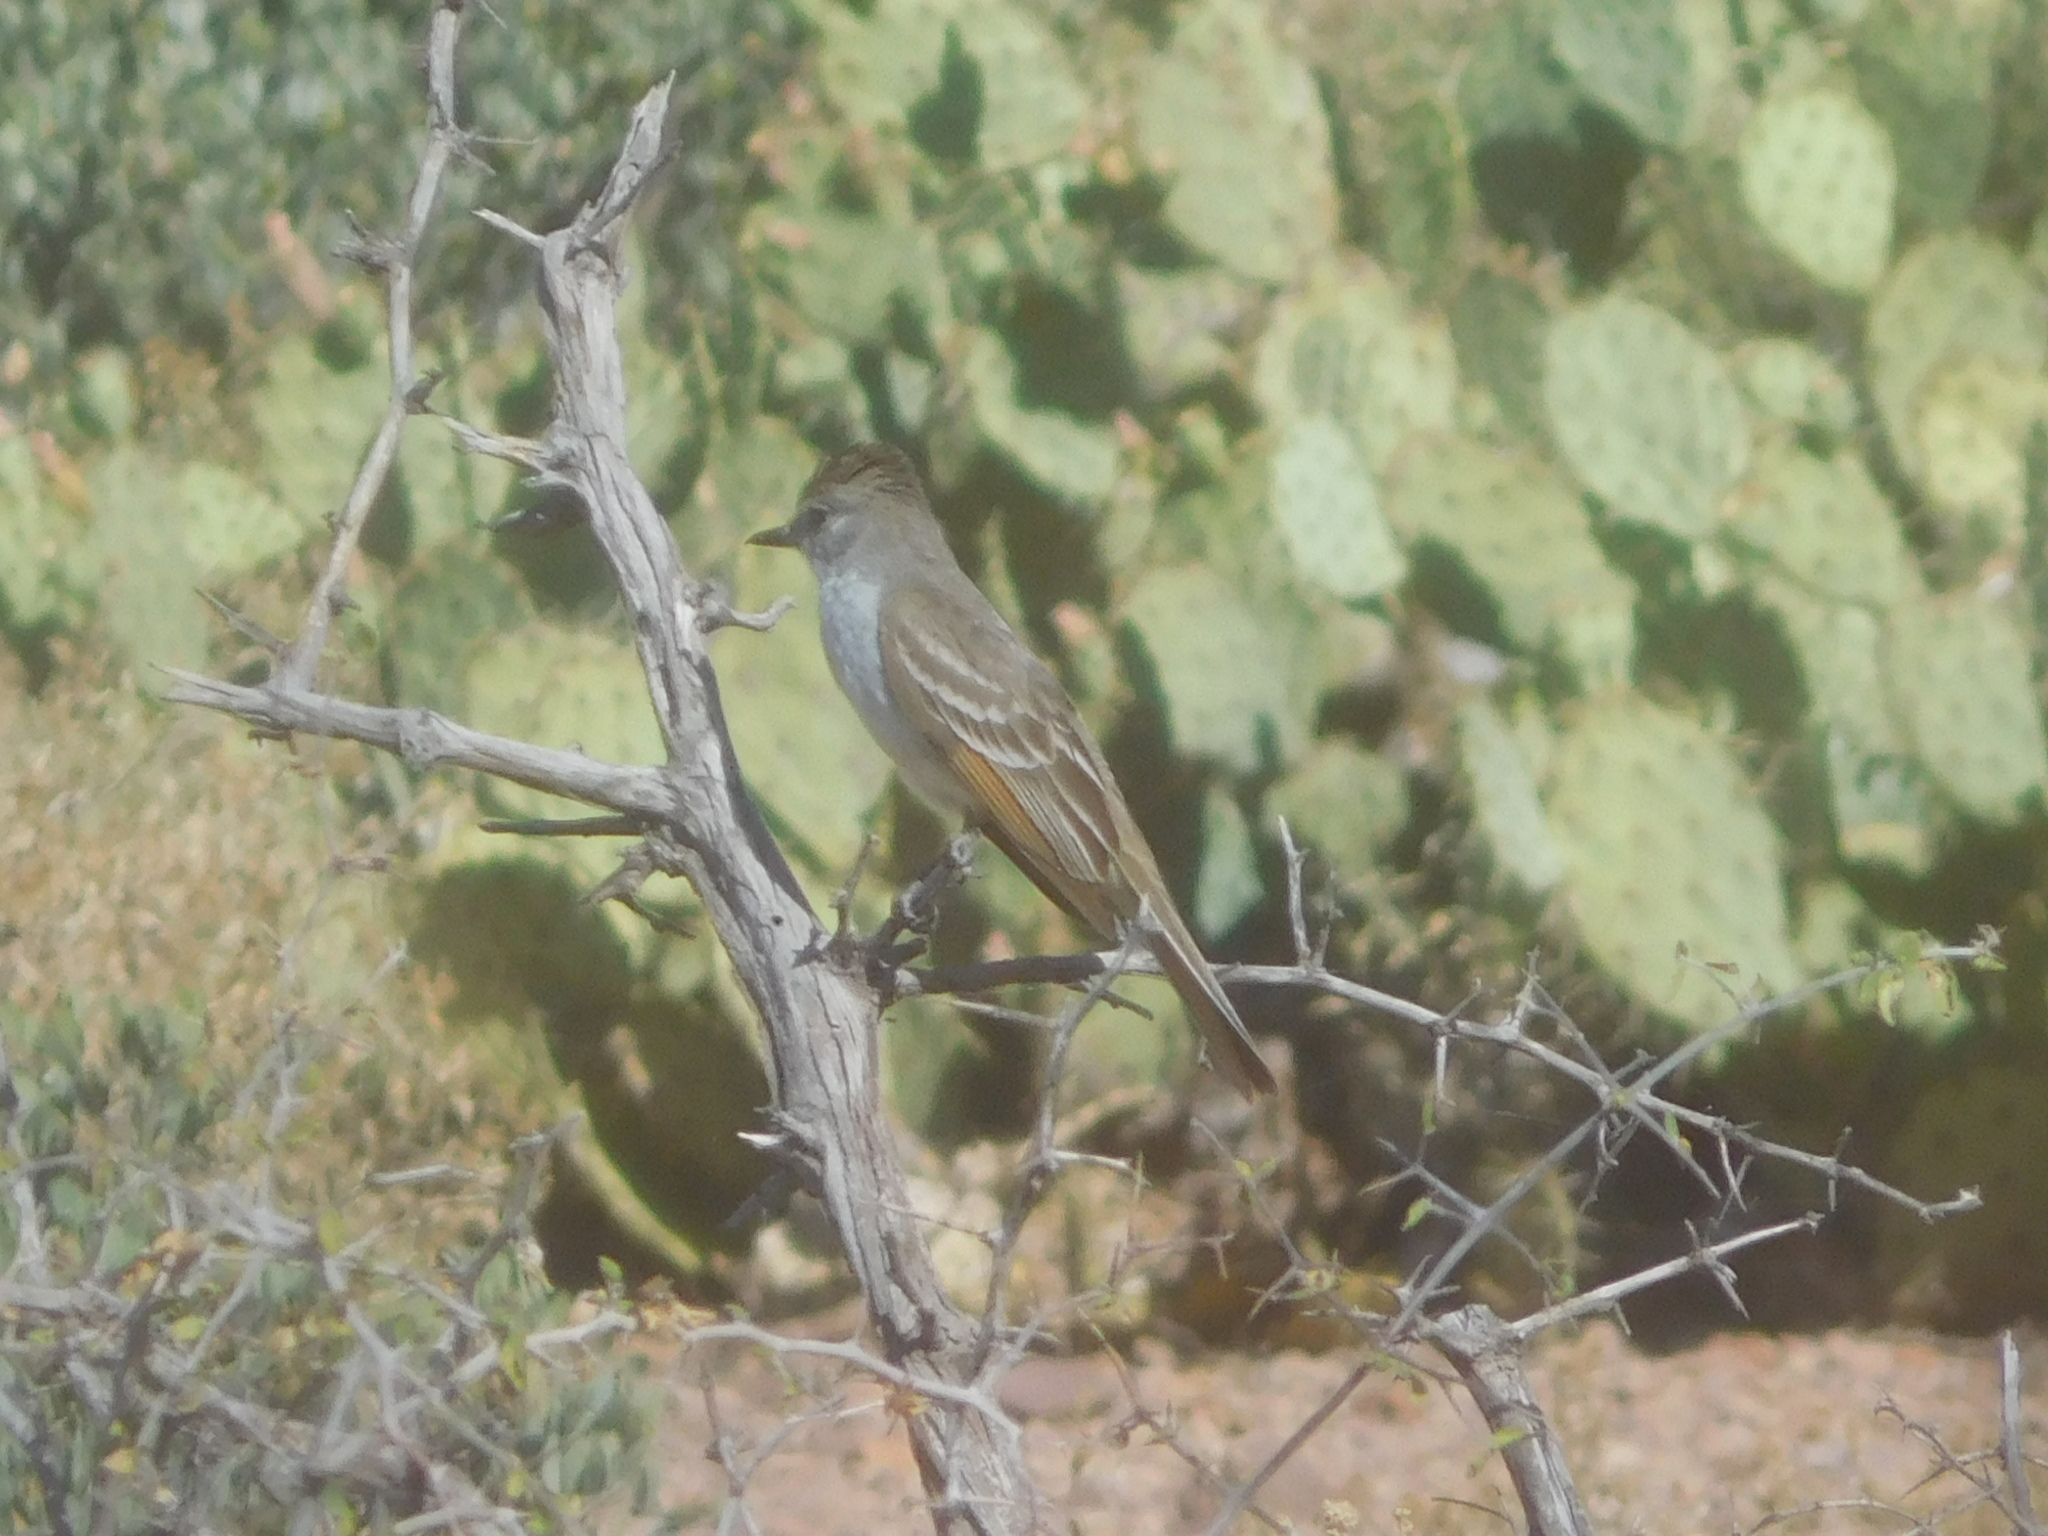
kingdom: Animalia
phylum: Chordata
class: Aves
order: Passeriformes
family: Tyrannidae
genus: Myiarchus
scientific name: Myiarchus cinerascens
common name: Ash-throated flycatcher
